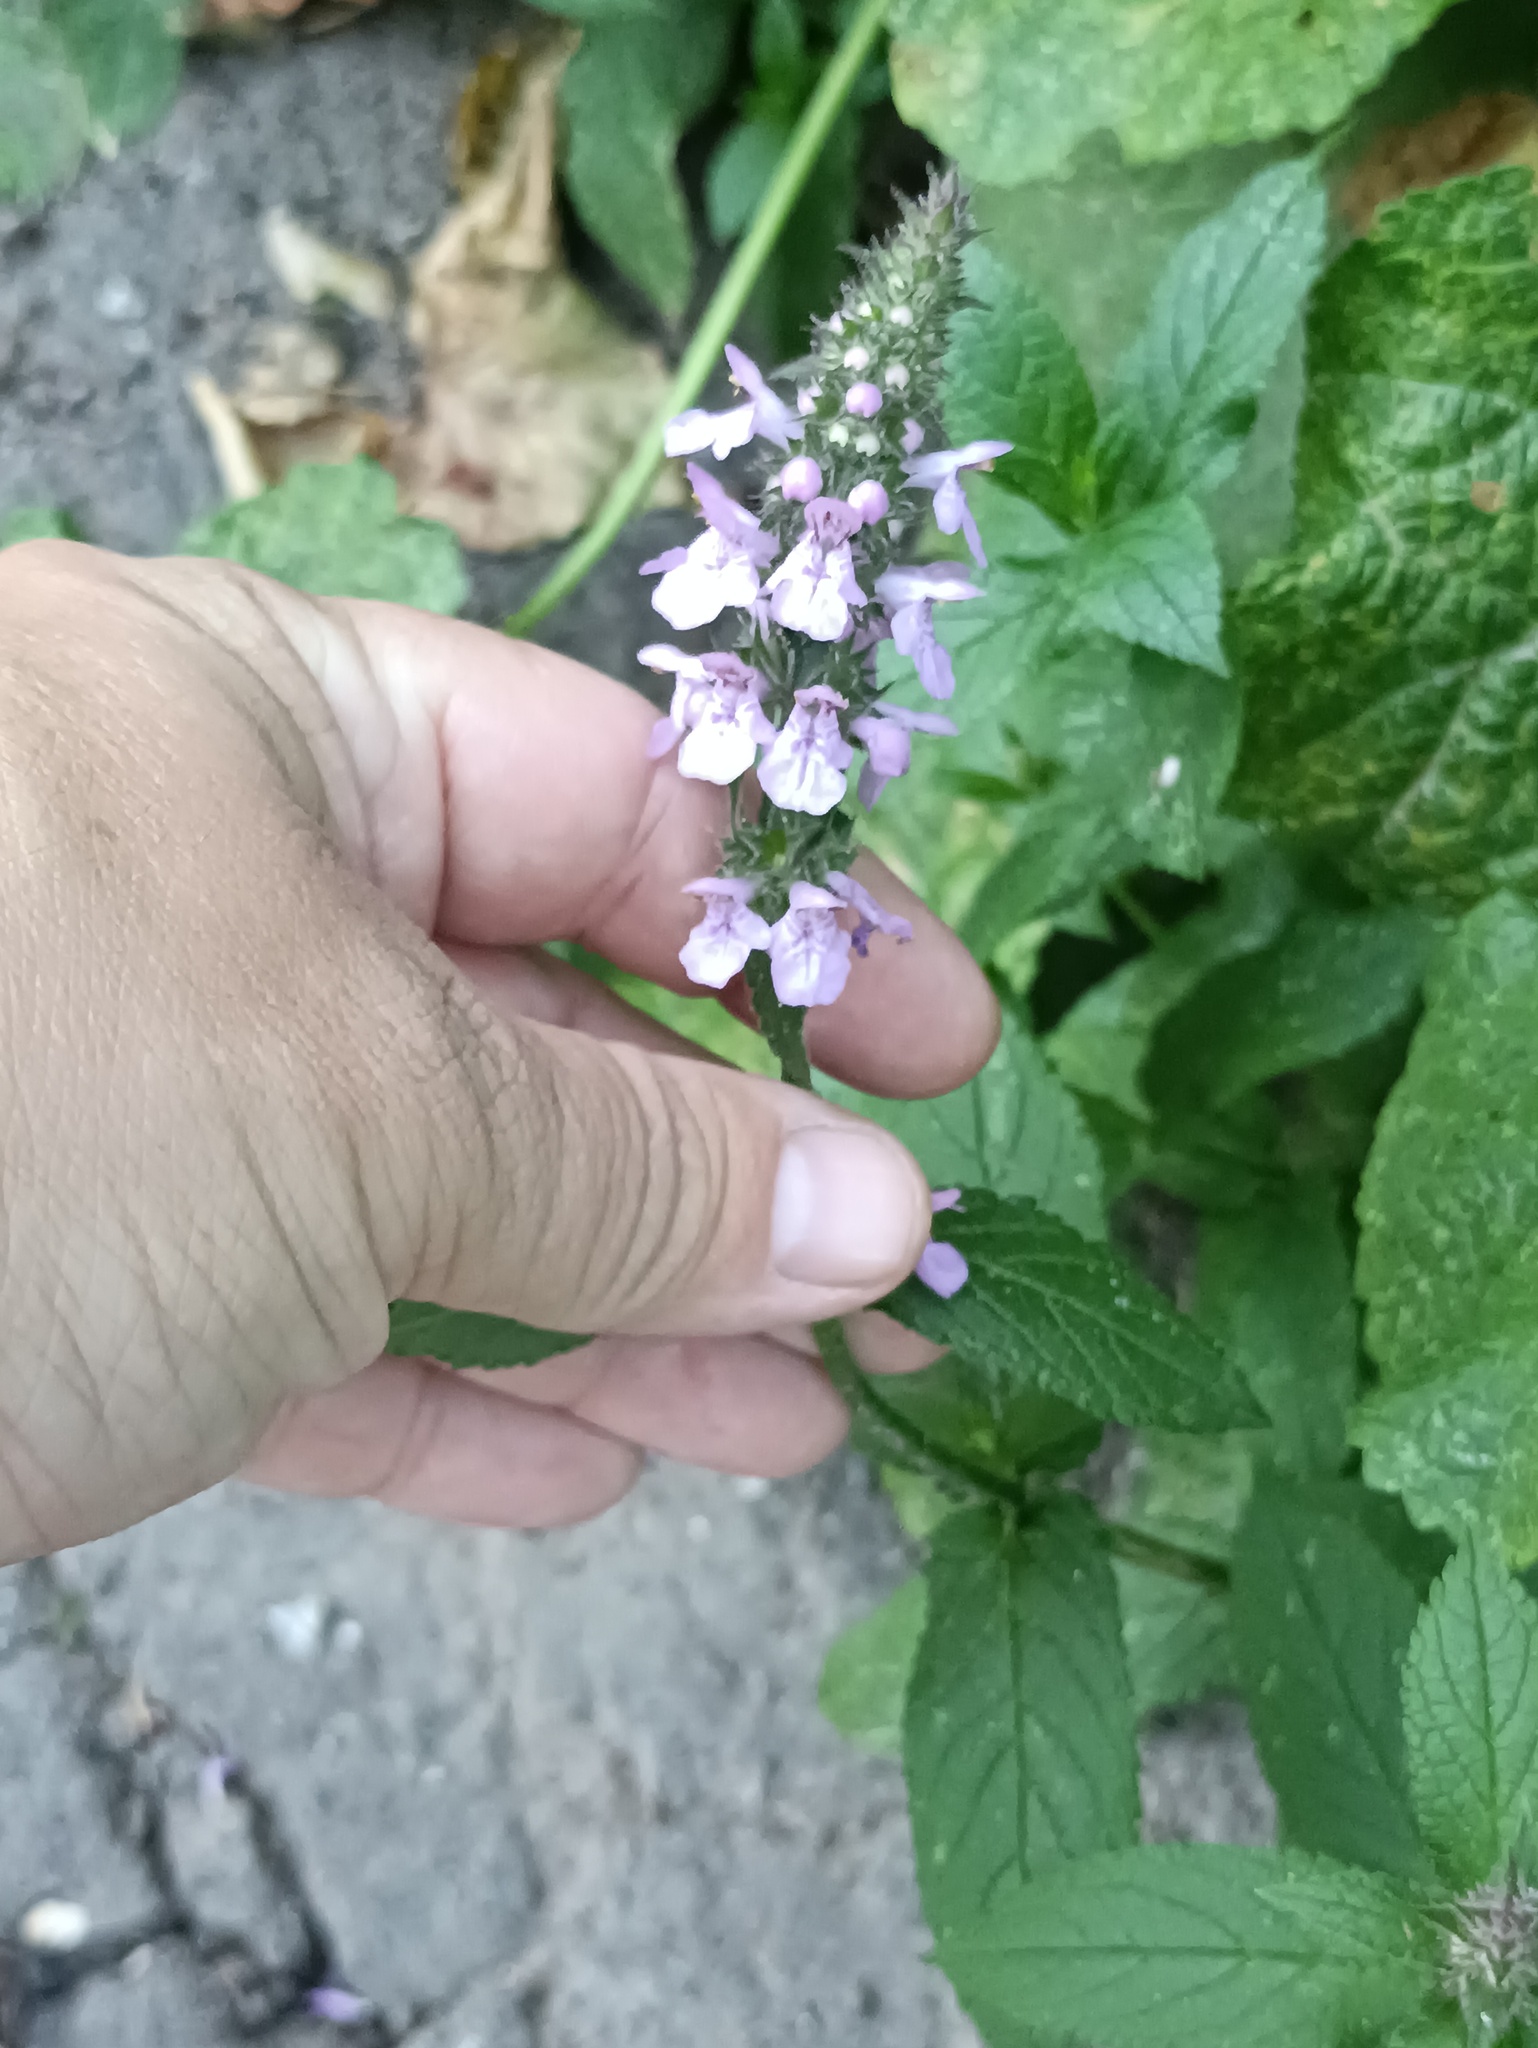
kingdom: Plantae
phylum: Tracheophyta
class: Magnoliopsida
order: Lamiales
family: Lamiaceae
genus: Stachys
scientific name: Stachys palustris
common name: Marsh woundwort
